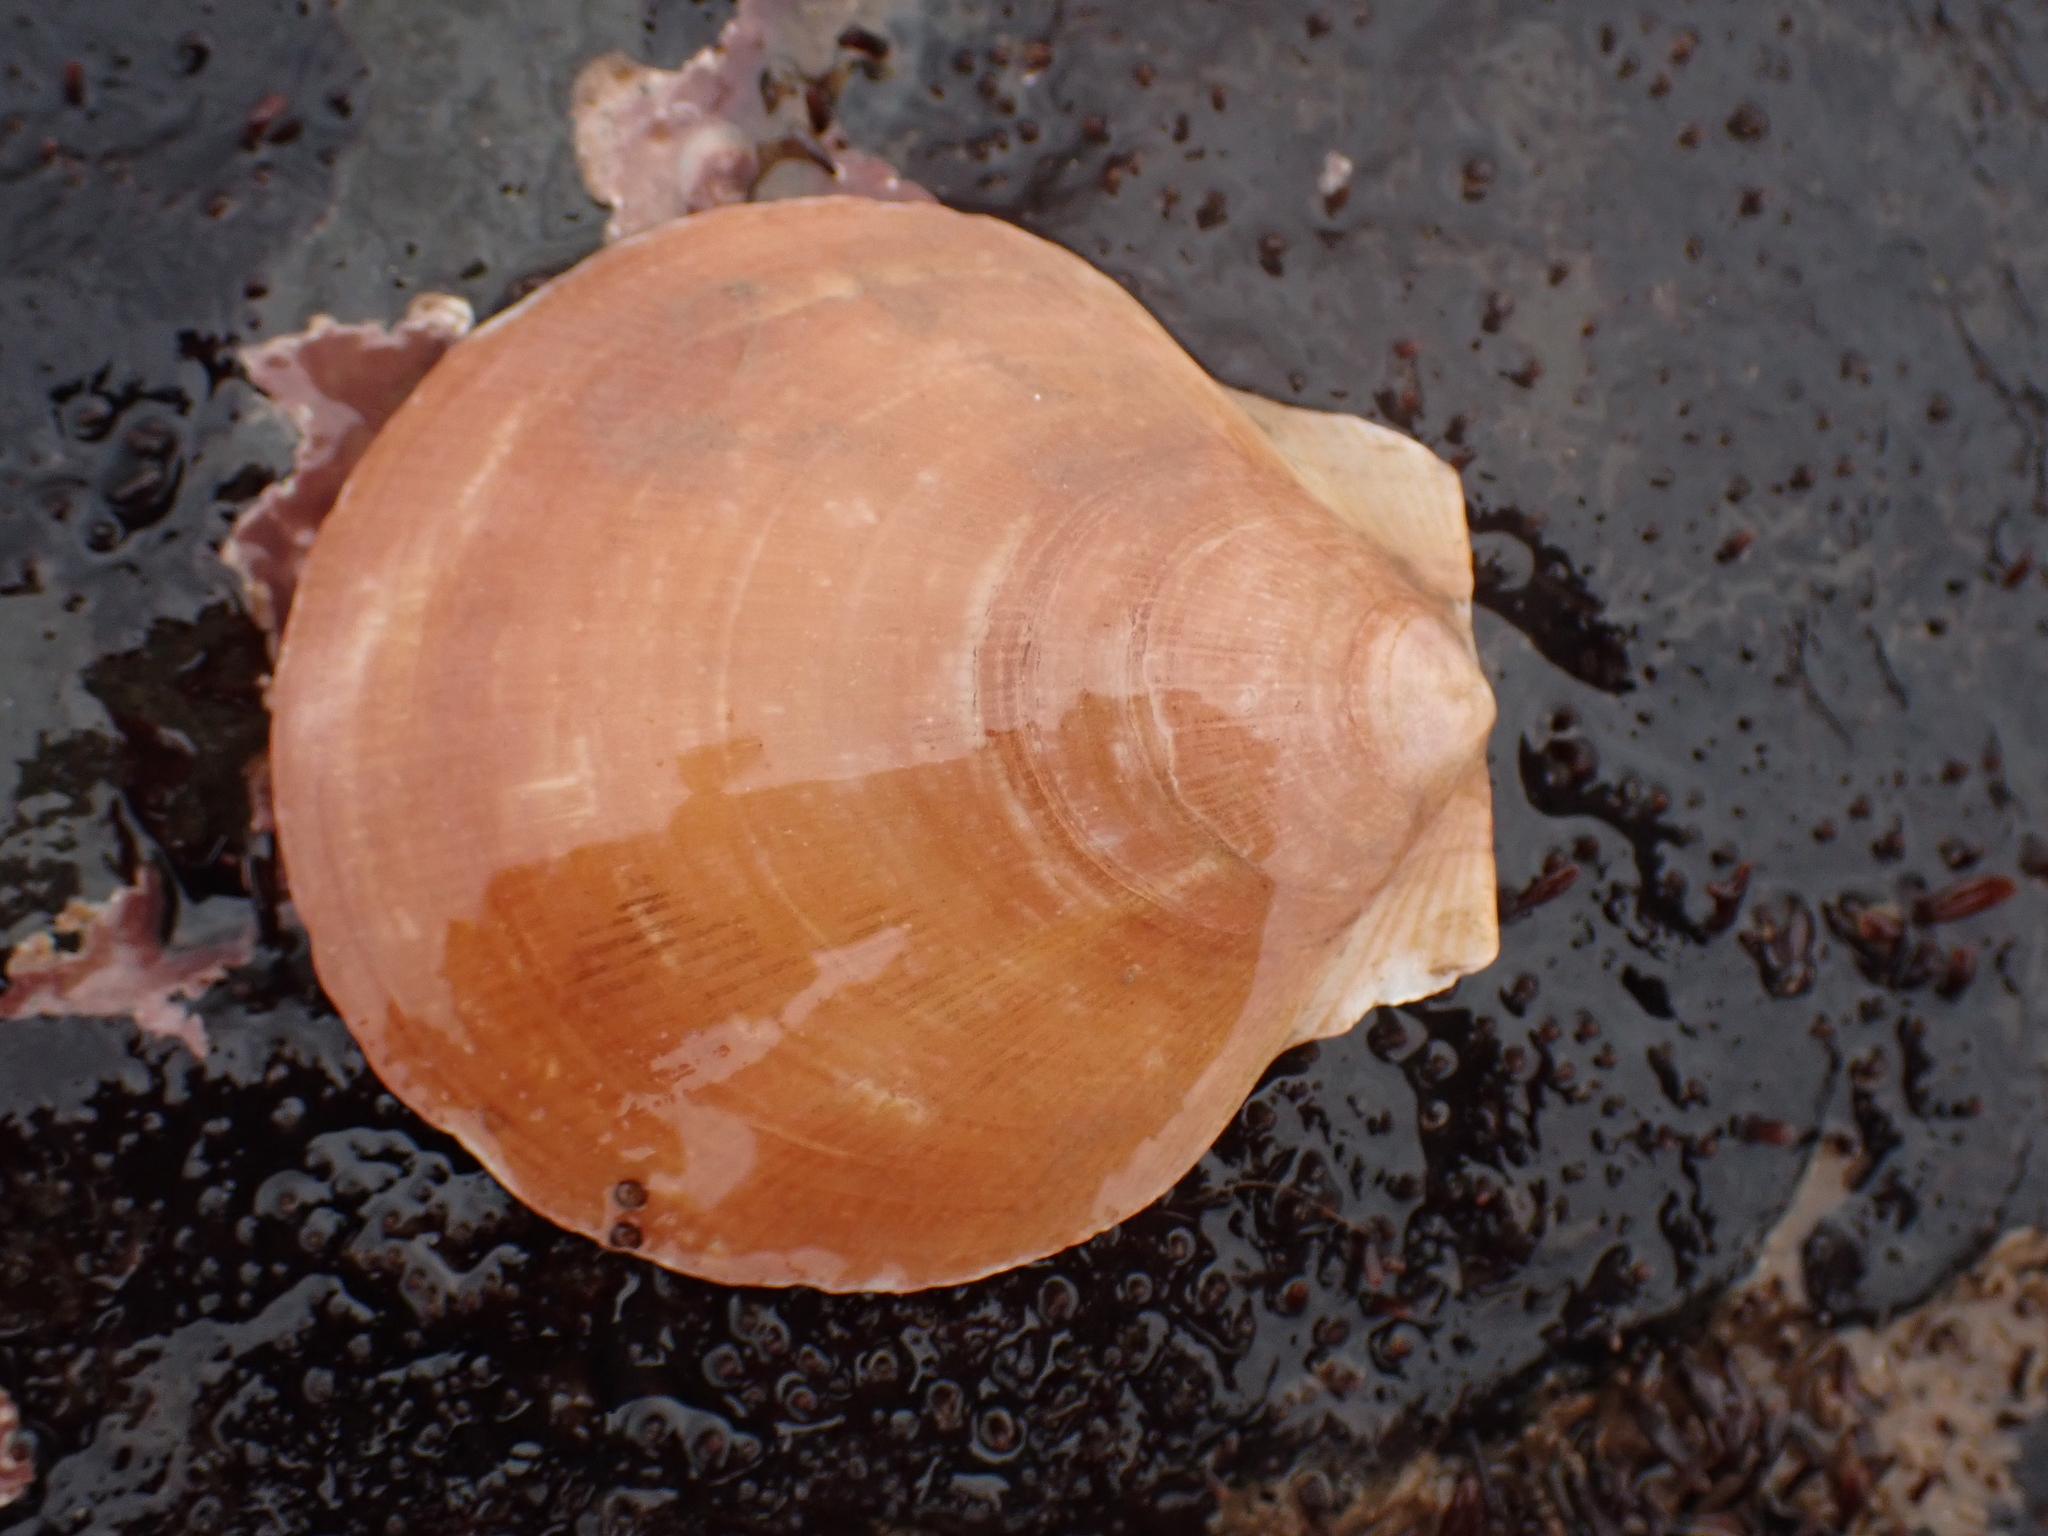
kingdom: Animalia
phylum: Mollusca
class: Bivalvia
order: Pectinida
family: Pectinidae
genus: Placopecten
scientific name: Placopecten magellanicus
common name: American sea scallop
